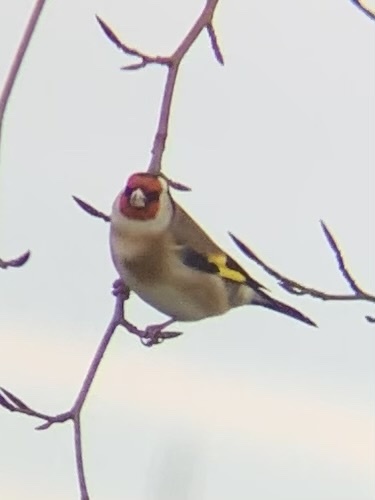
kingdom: Animalia
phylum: Chordata
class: Aves
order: Passeriformes
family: Fringillidae
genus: Carduelis
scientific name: Carduelis carduelis
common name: European goldfinch
